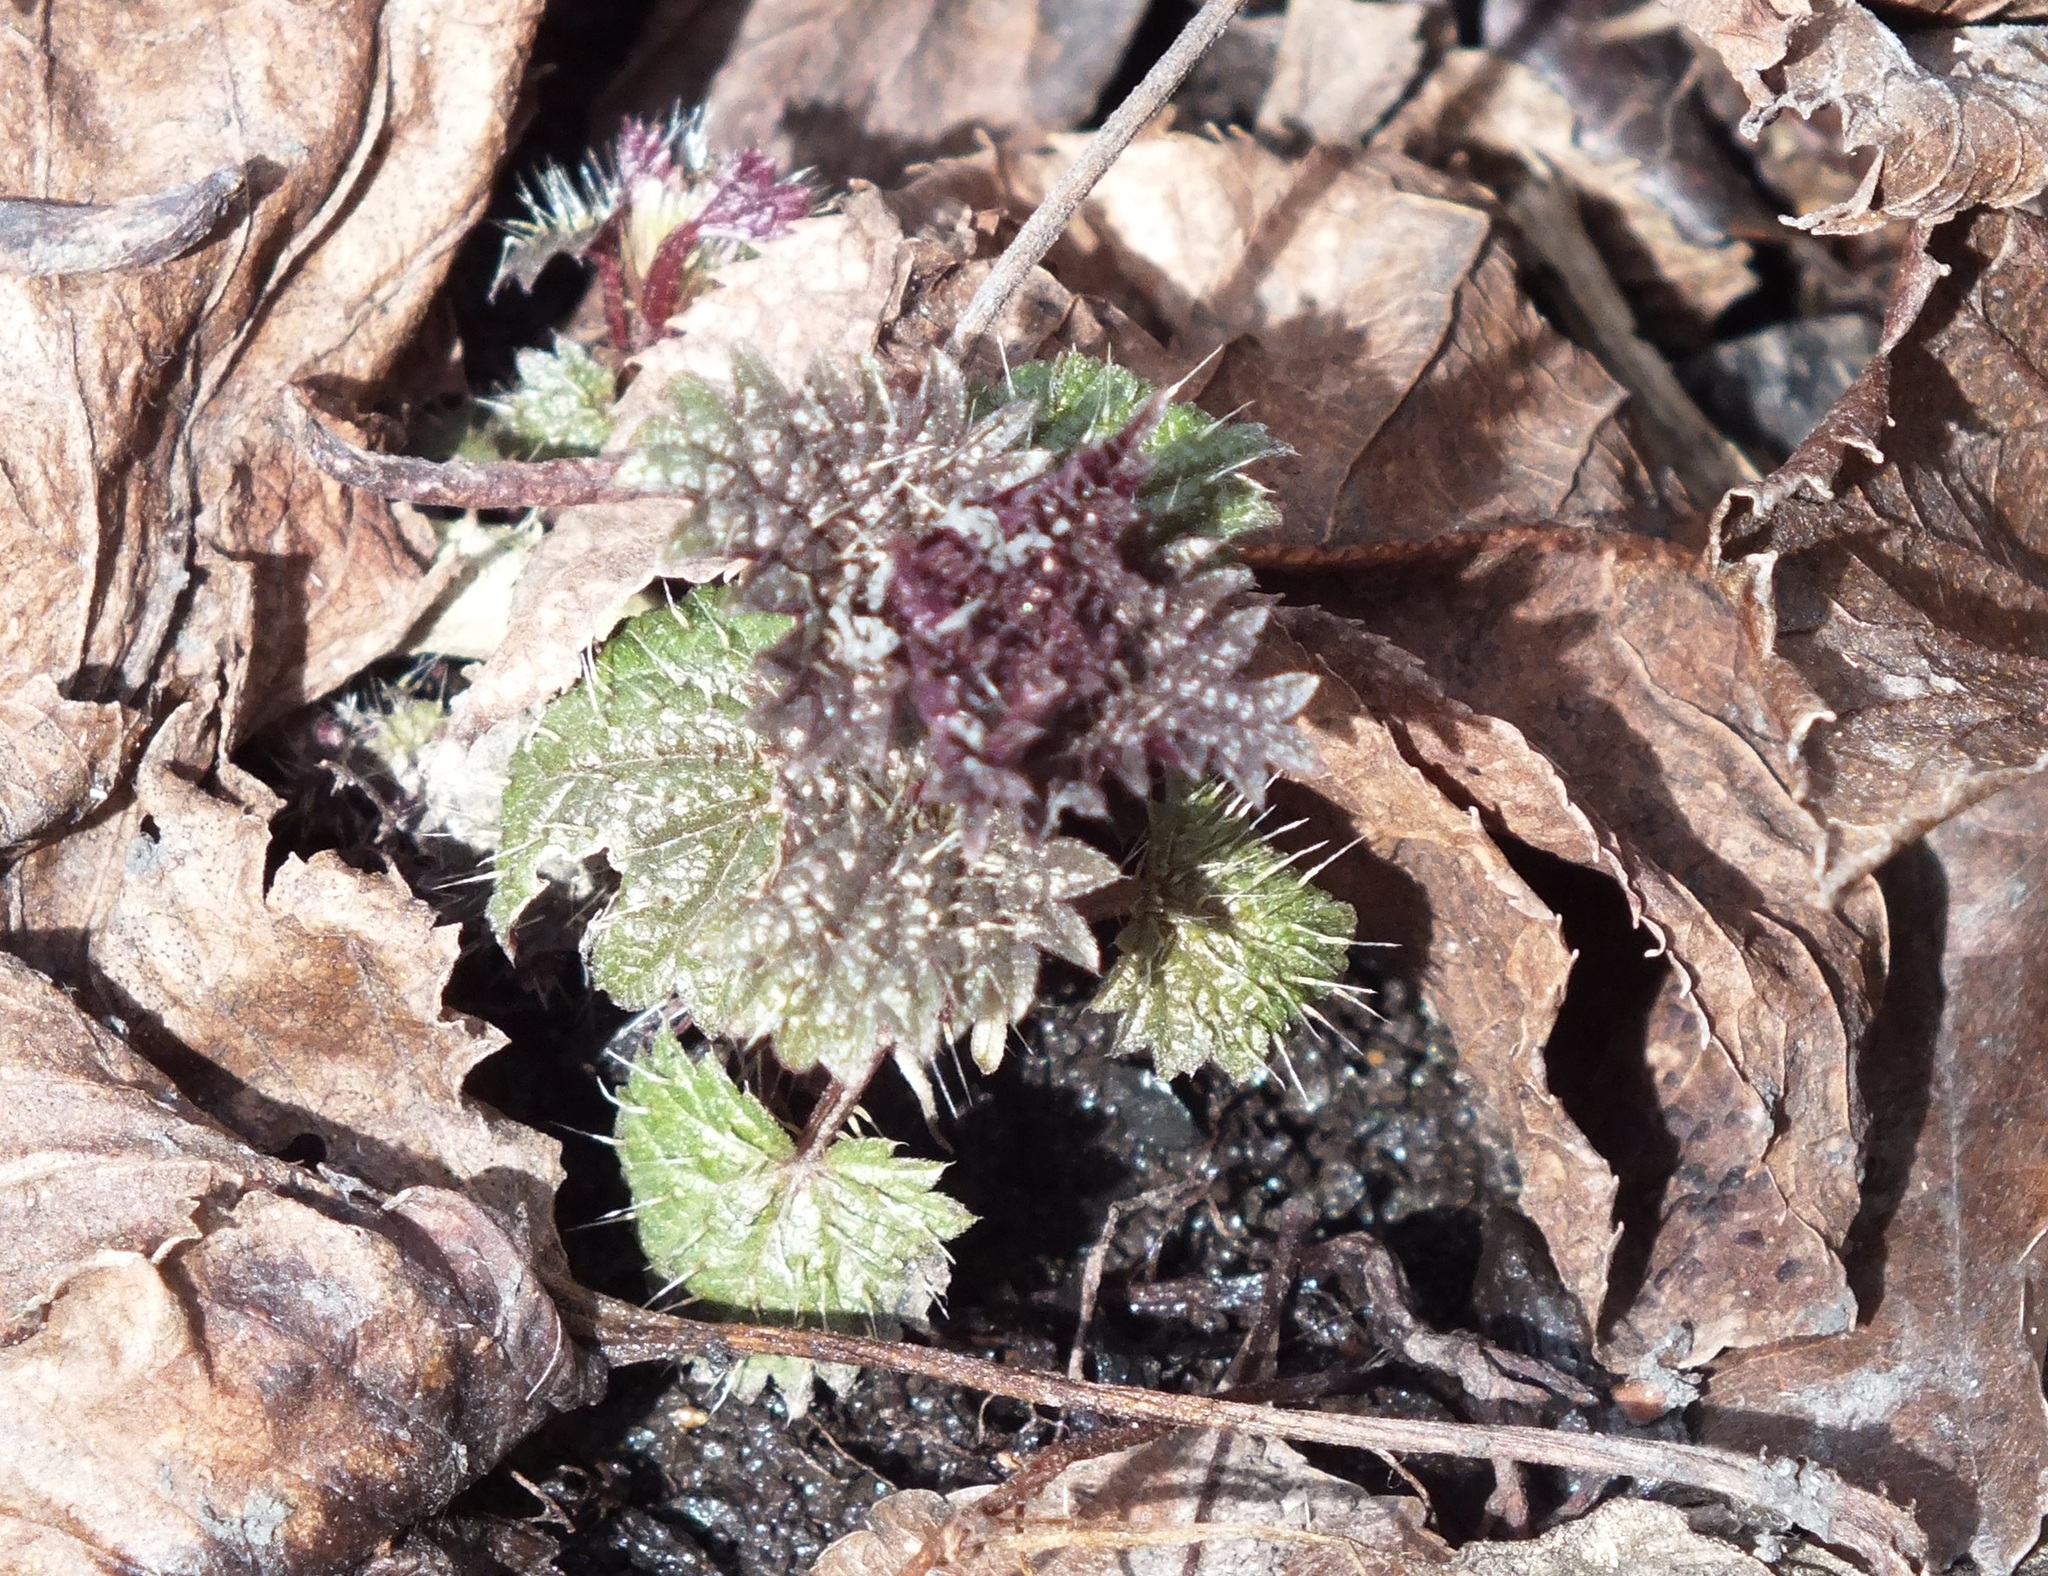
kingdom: Plantae
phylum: Tracheophyta
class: Magnoliopsida
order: Rosales
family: Urticaceae
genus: Urtica
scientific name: Urtica dioica
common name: Common nettle
